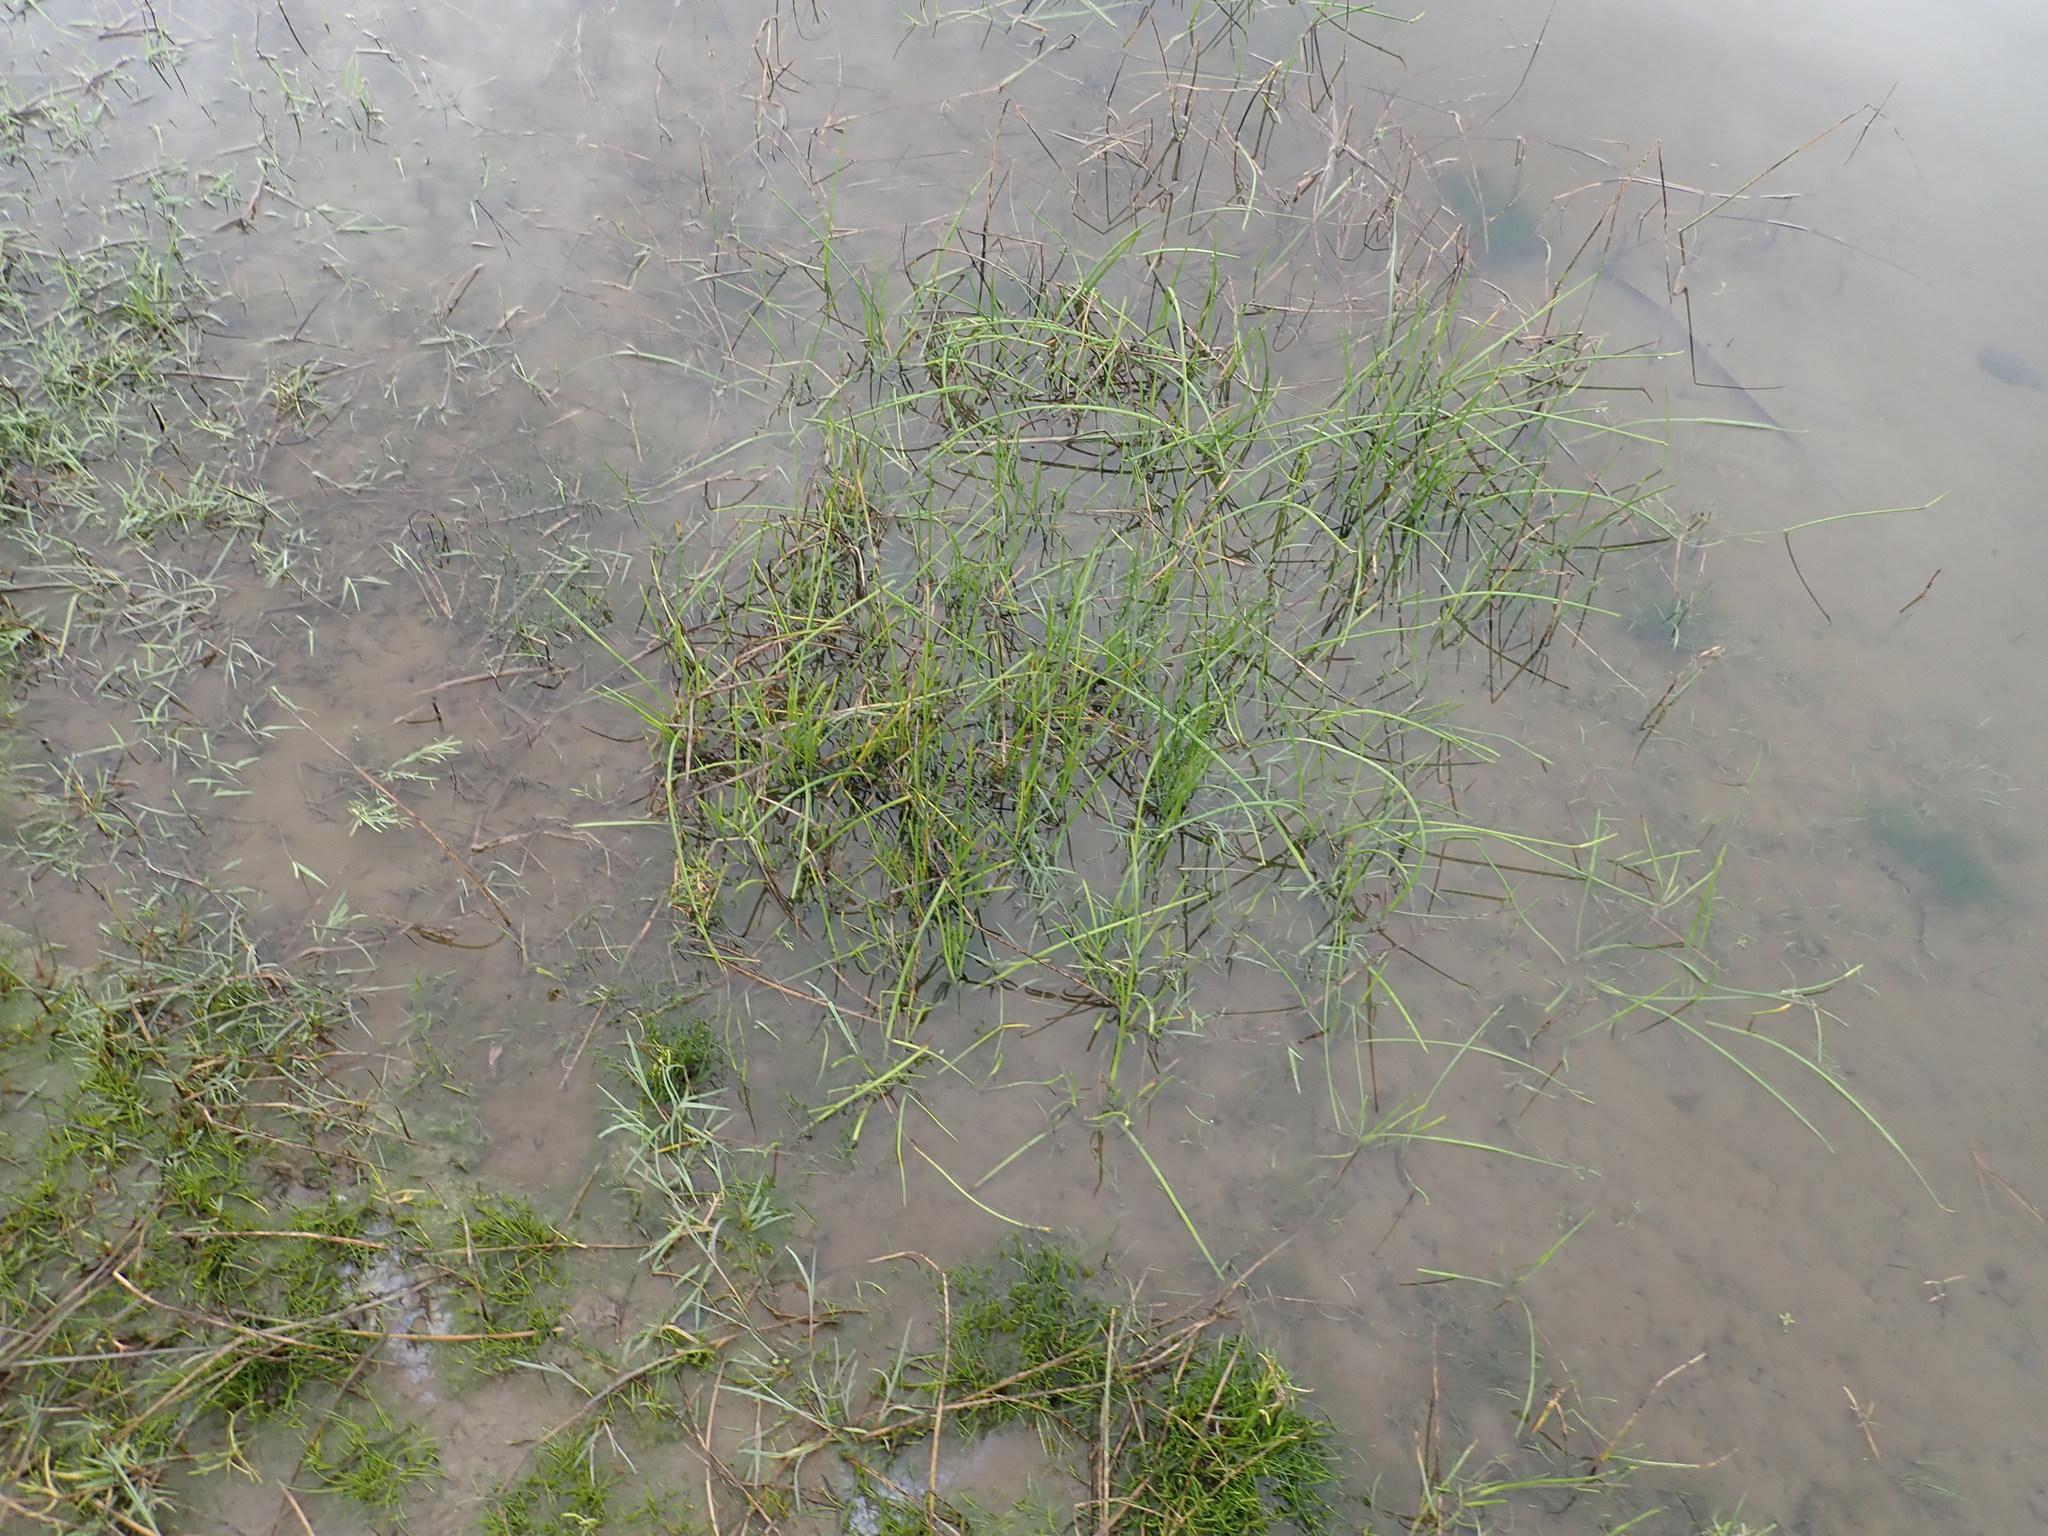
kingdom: Plantae
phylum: Tracheophyta
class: Liliopsida
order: Poales
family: Cyperaceae
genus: Isolepis
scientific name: Isolepis prolifera
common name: Proliferating bulrush
